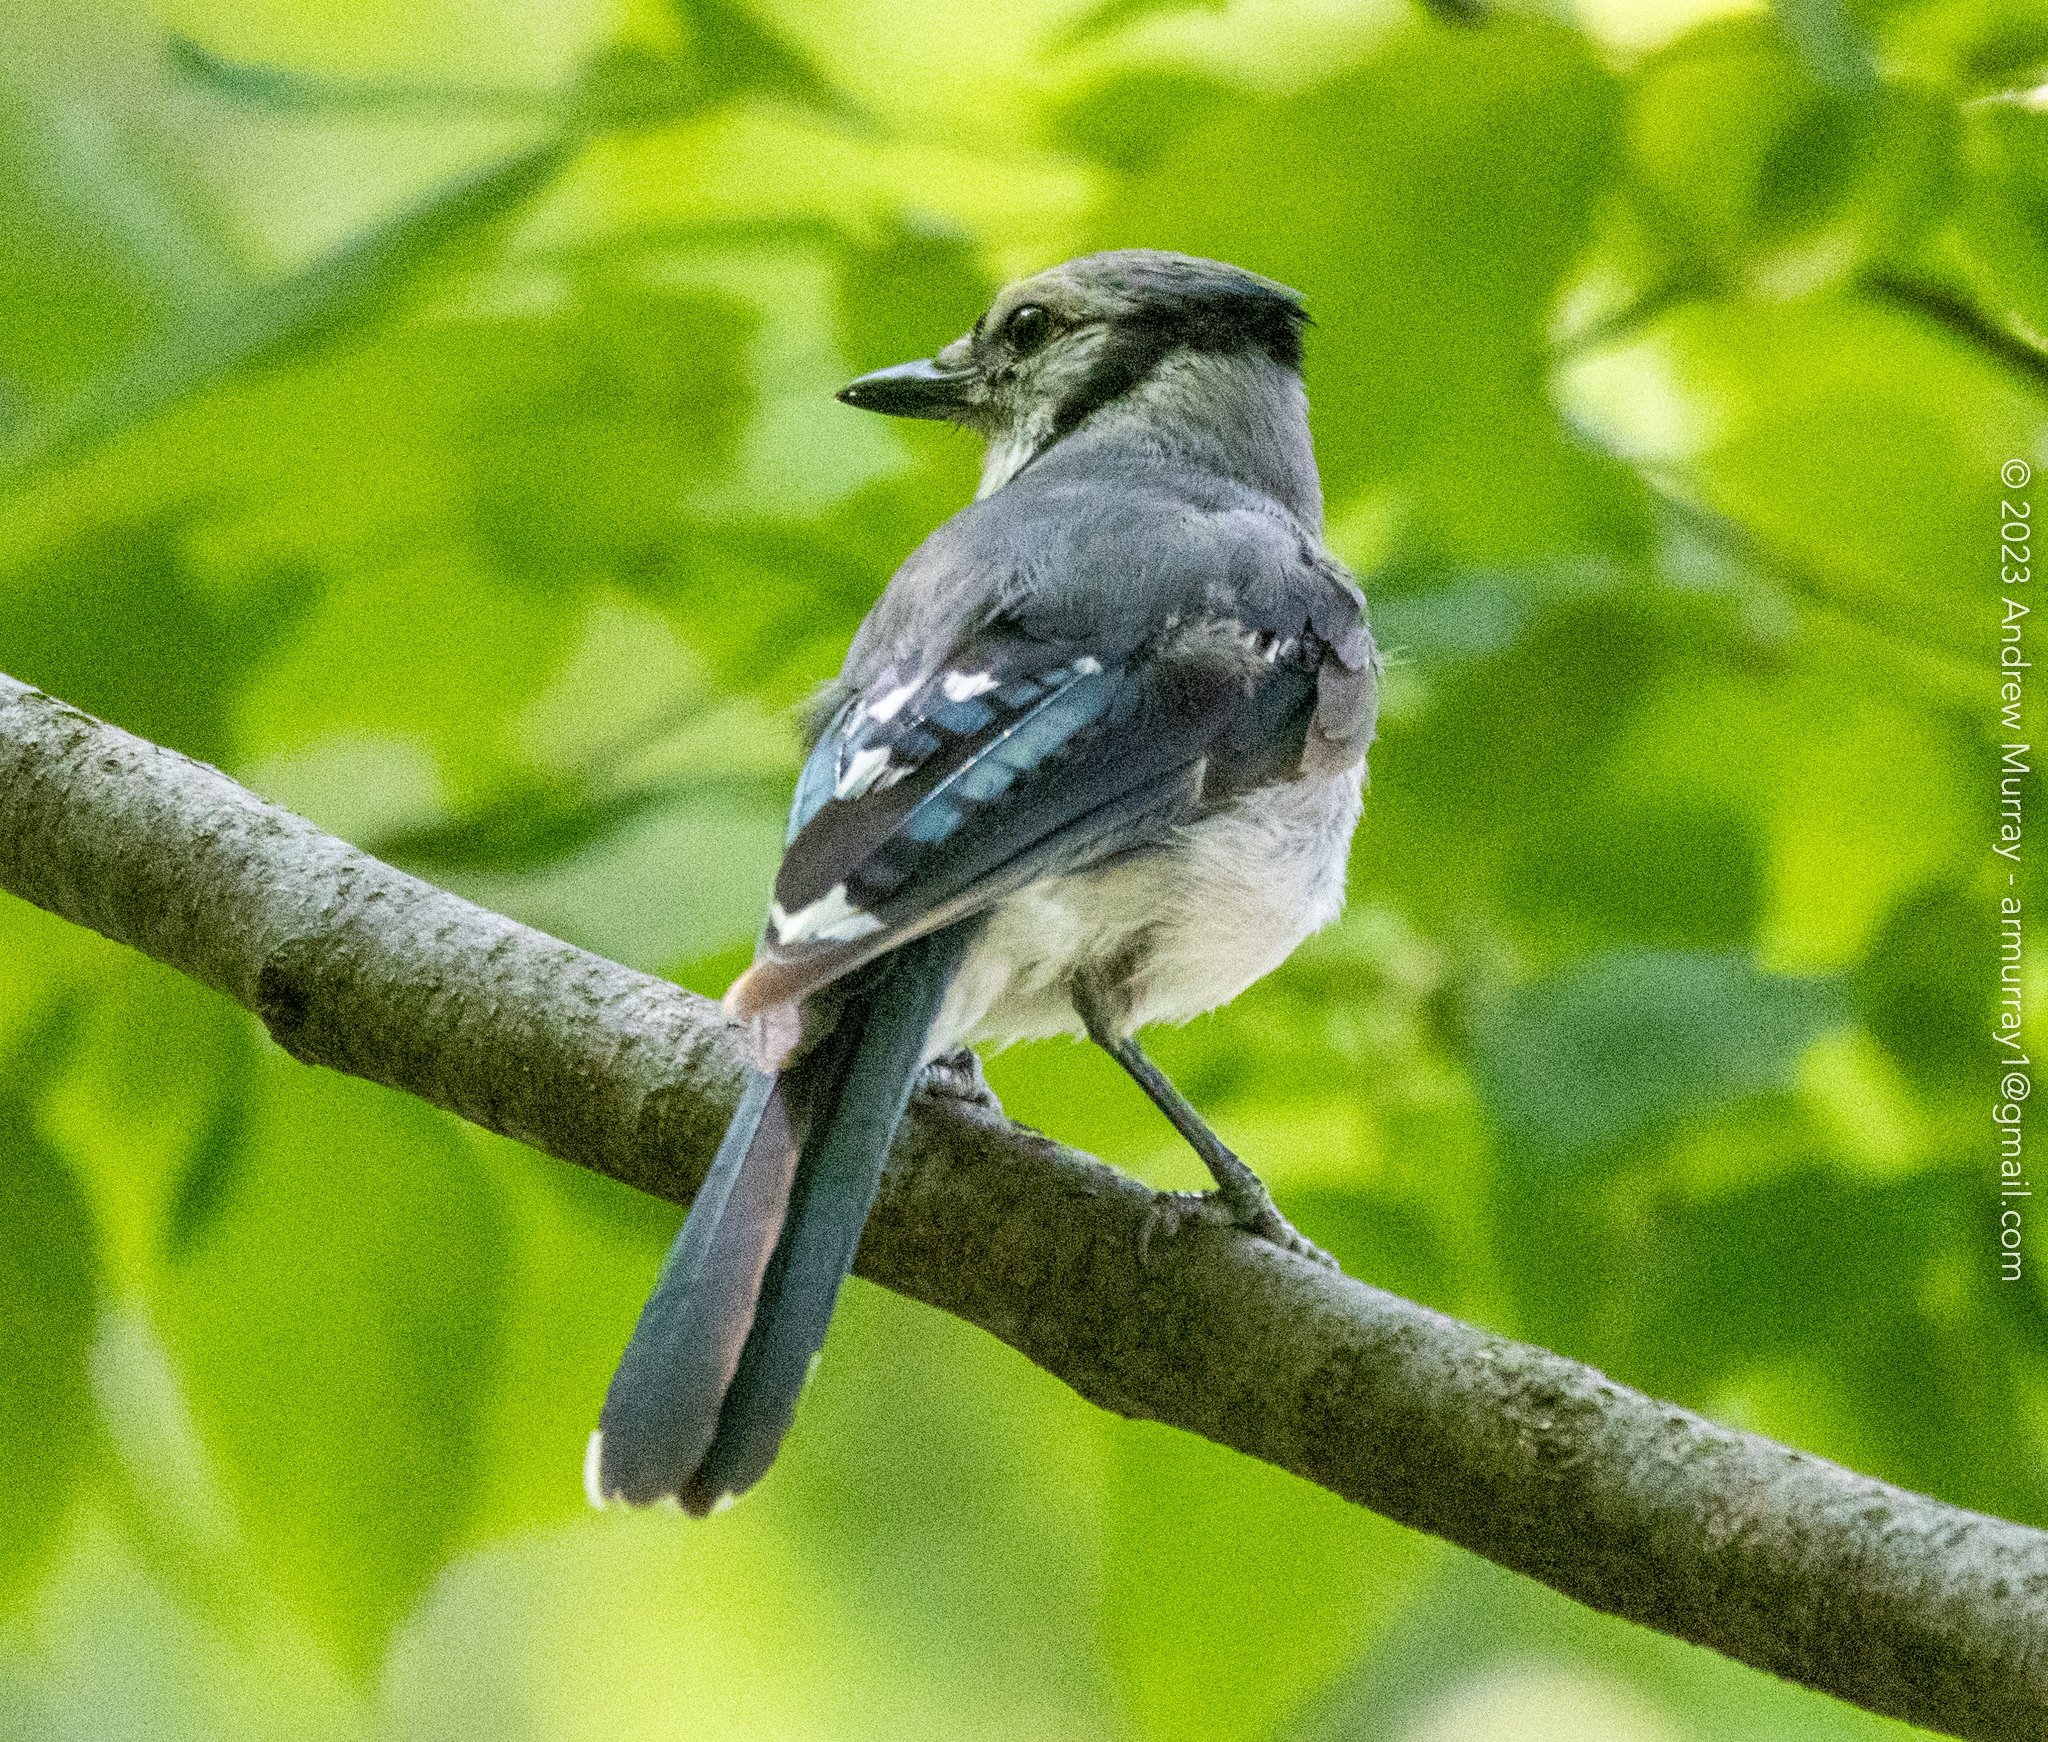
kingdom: Animalia
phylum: Chordata
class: Aves
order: Passeriformes
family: Corvidae
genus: Cyanocitta
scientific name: Cyanocitta cristata
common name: Blue jay
